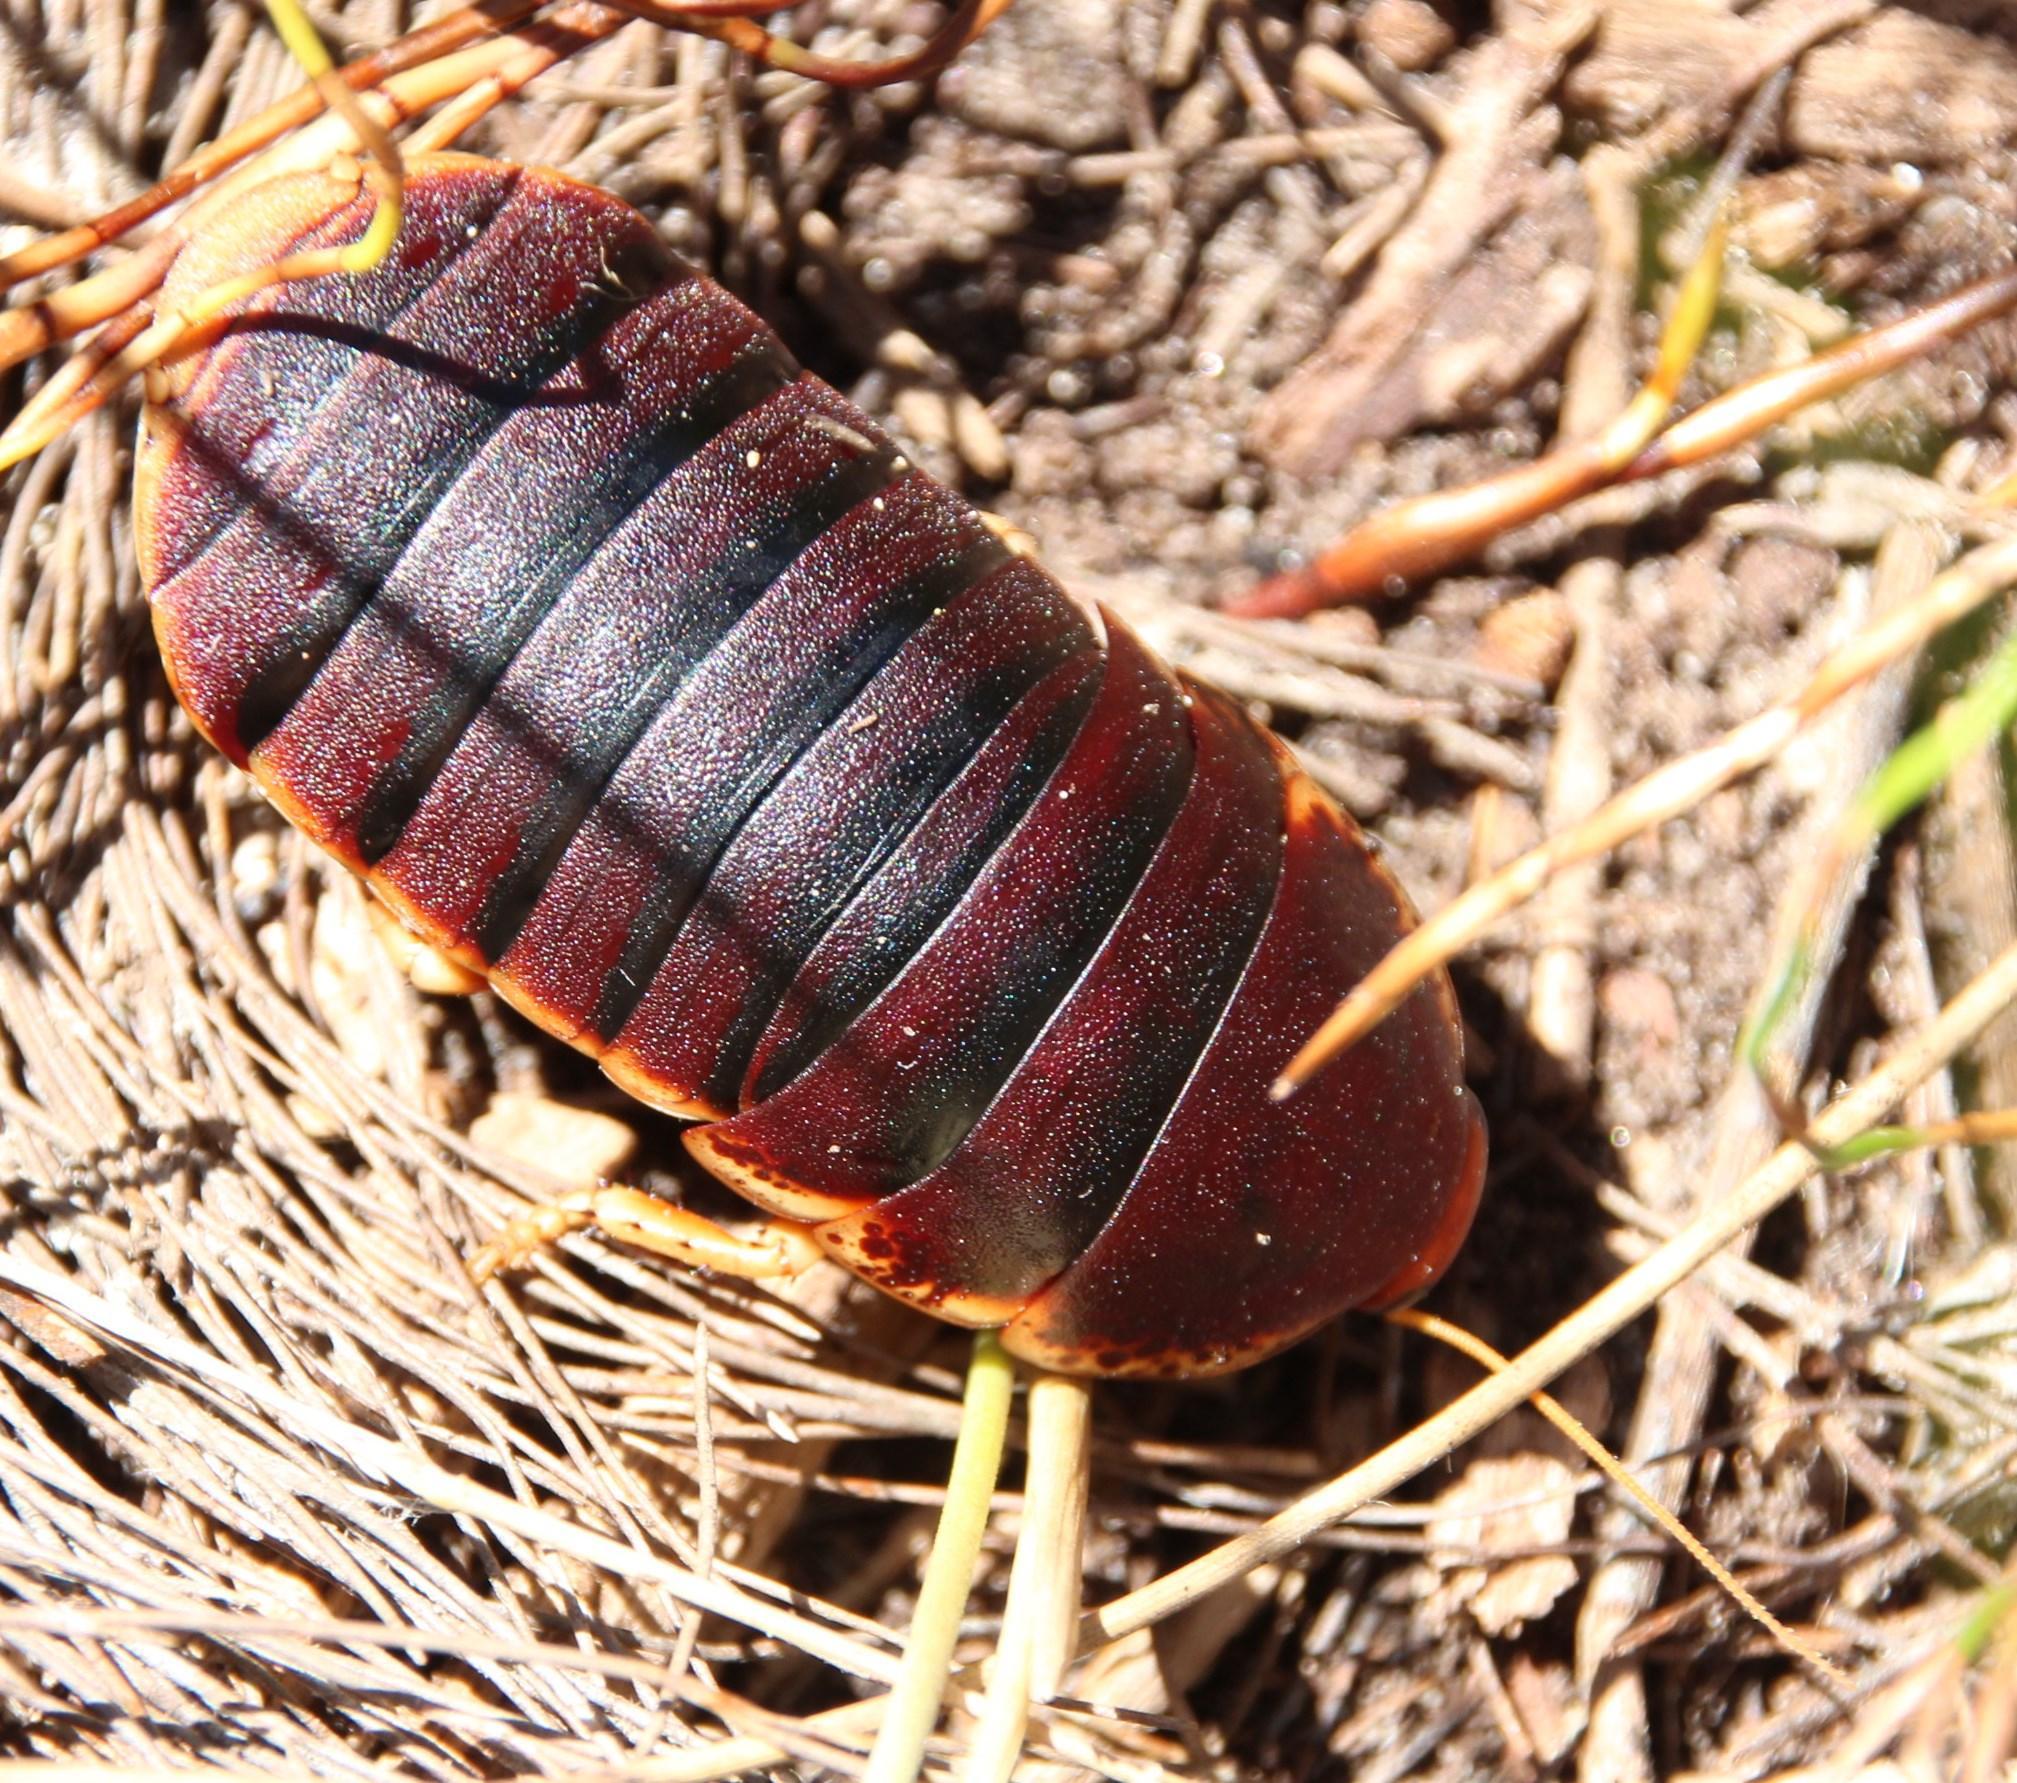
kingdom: Animalia
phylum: Arthropoda
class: Insecta
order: Blattodea
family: Blaberidae
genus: Aptera
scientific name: Aptera fusca
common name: Cape mountain cockroach
